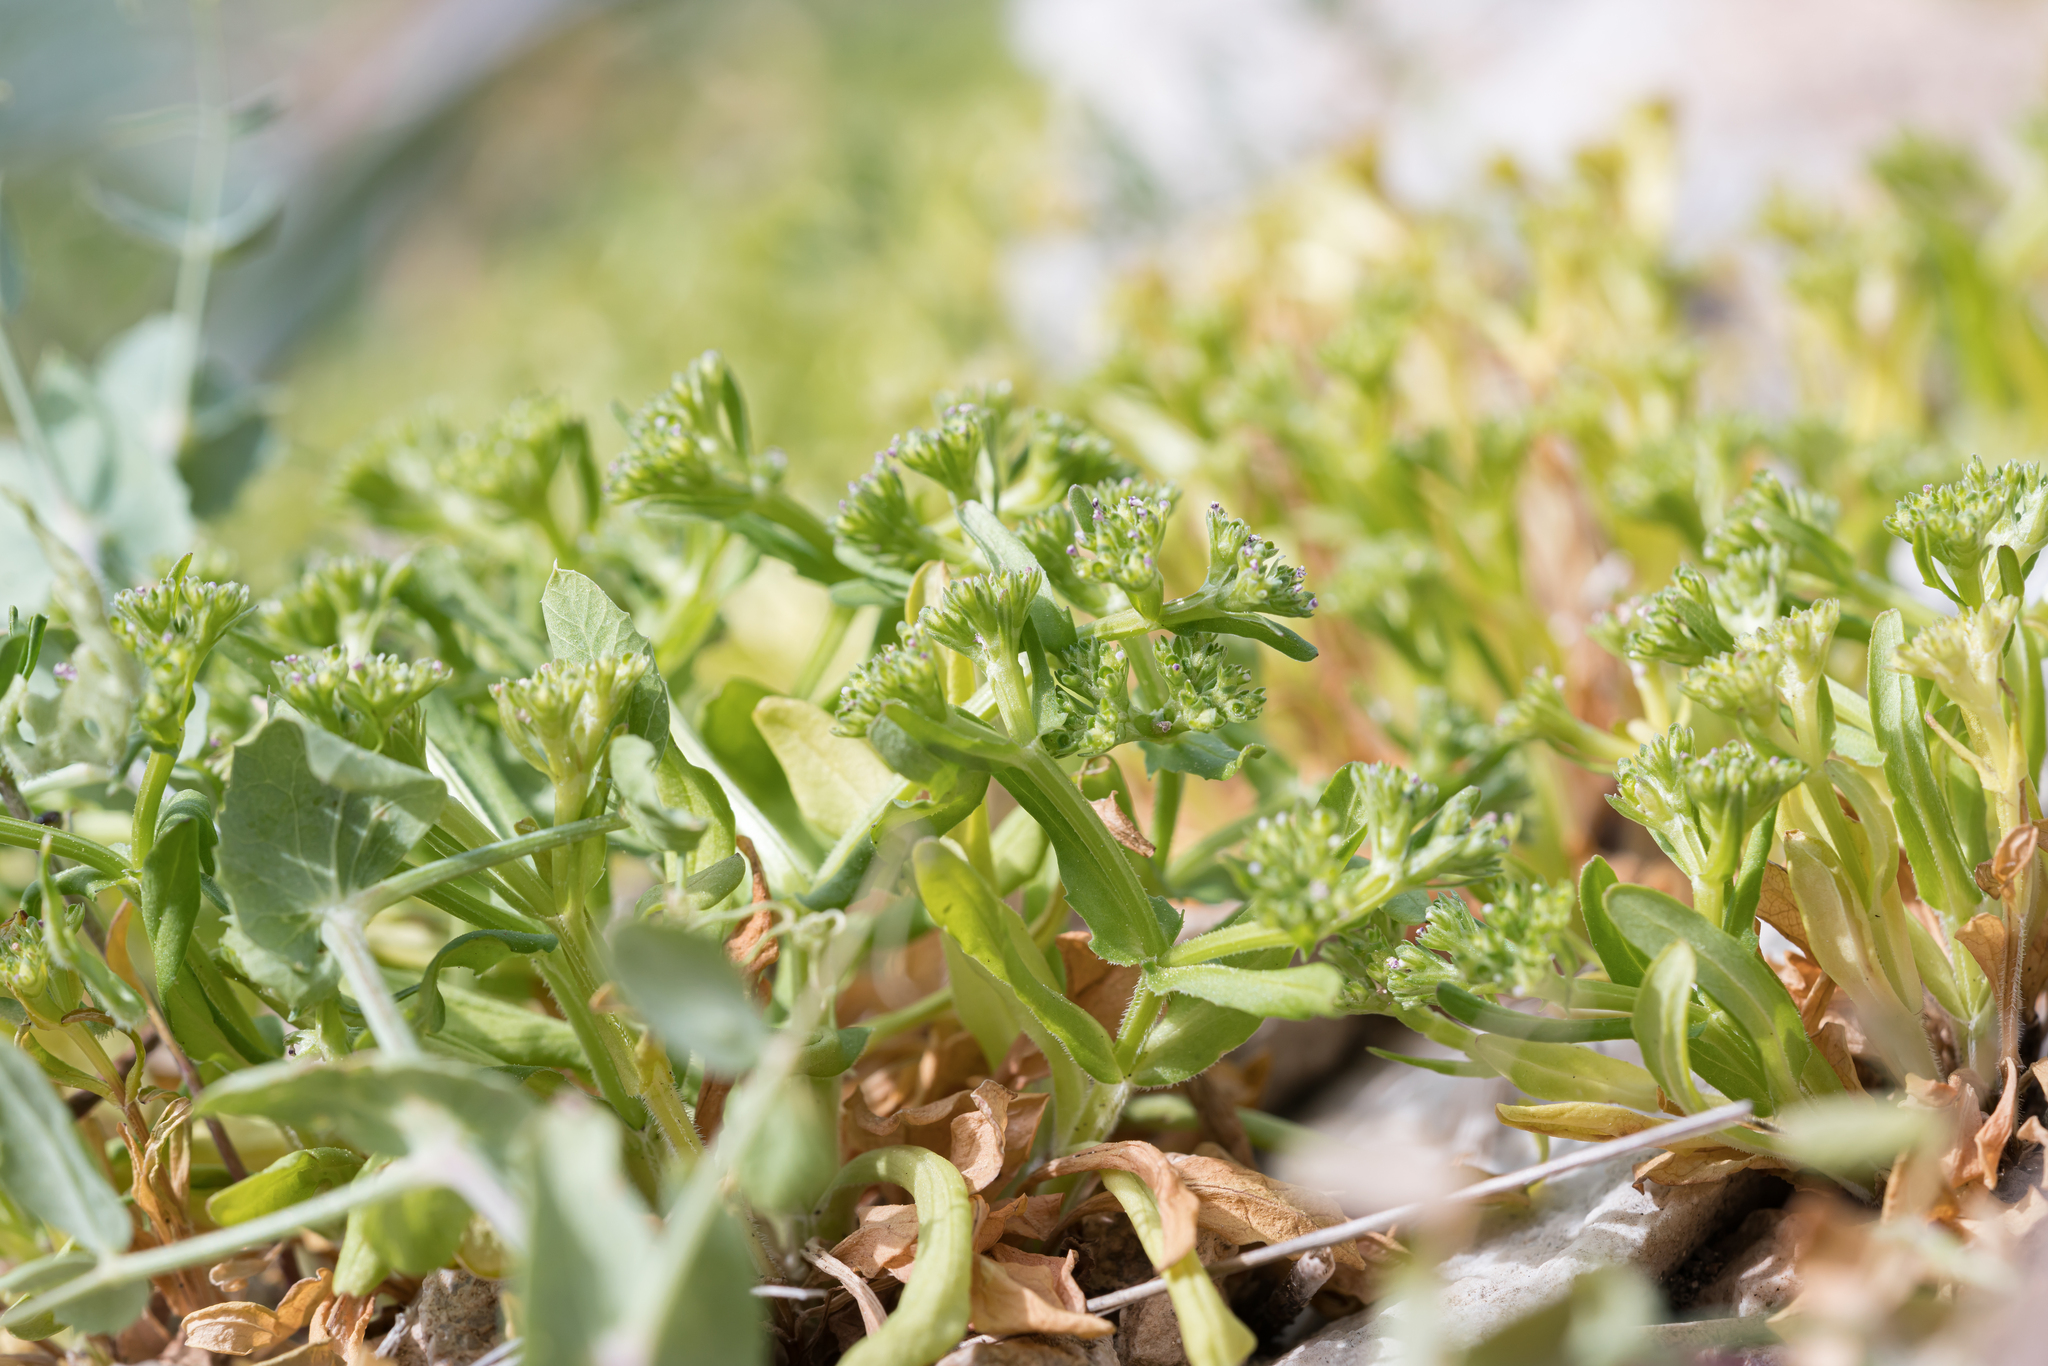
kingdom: Plantae
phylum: Tracheophyta
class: Magnoliopsida
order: Dipsacales
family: Caprifoliaceae
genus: Valerianella
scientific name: Valerianella muricata
